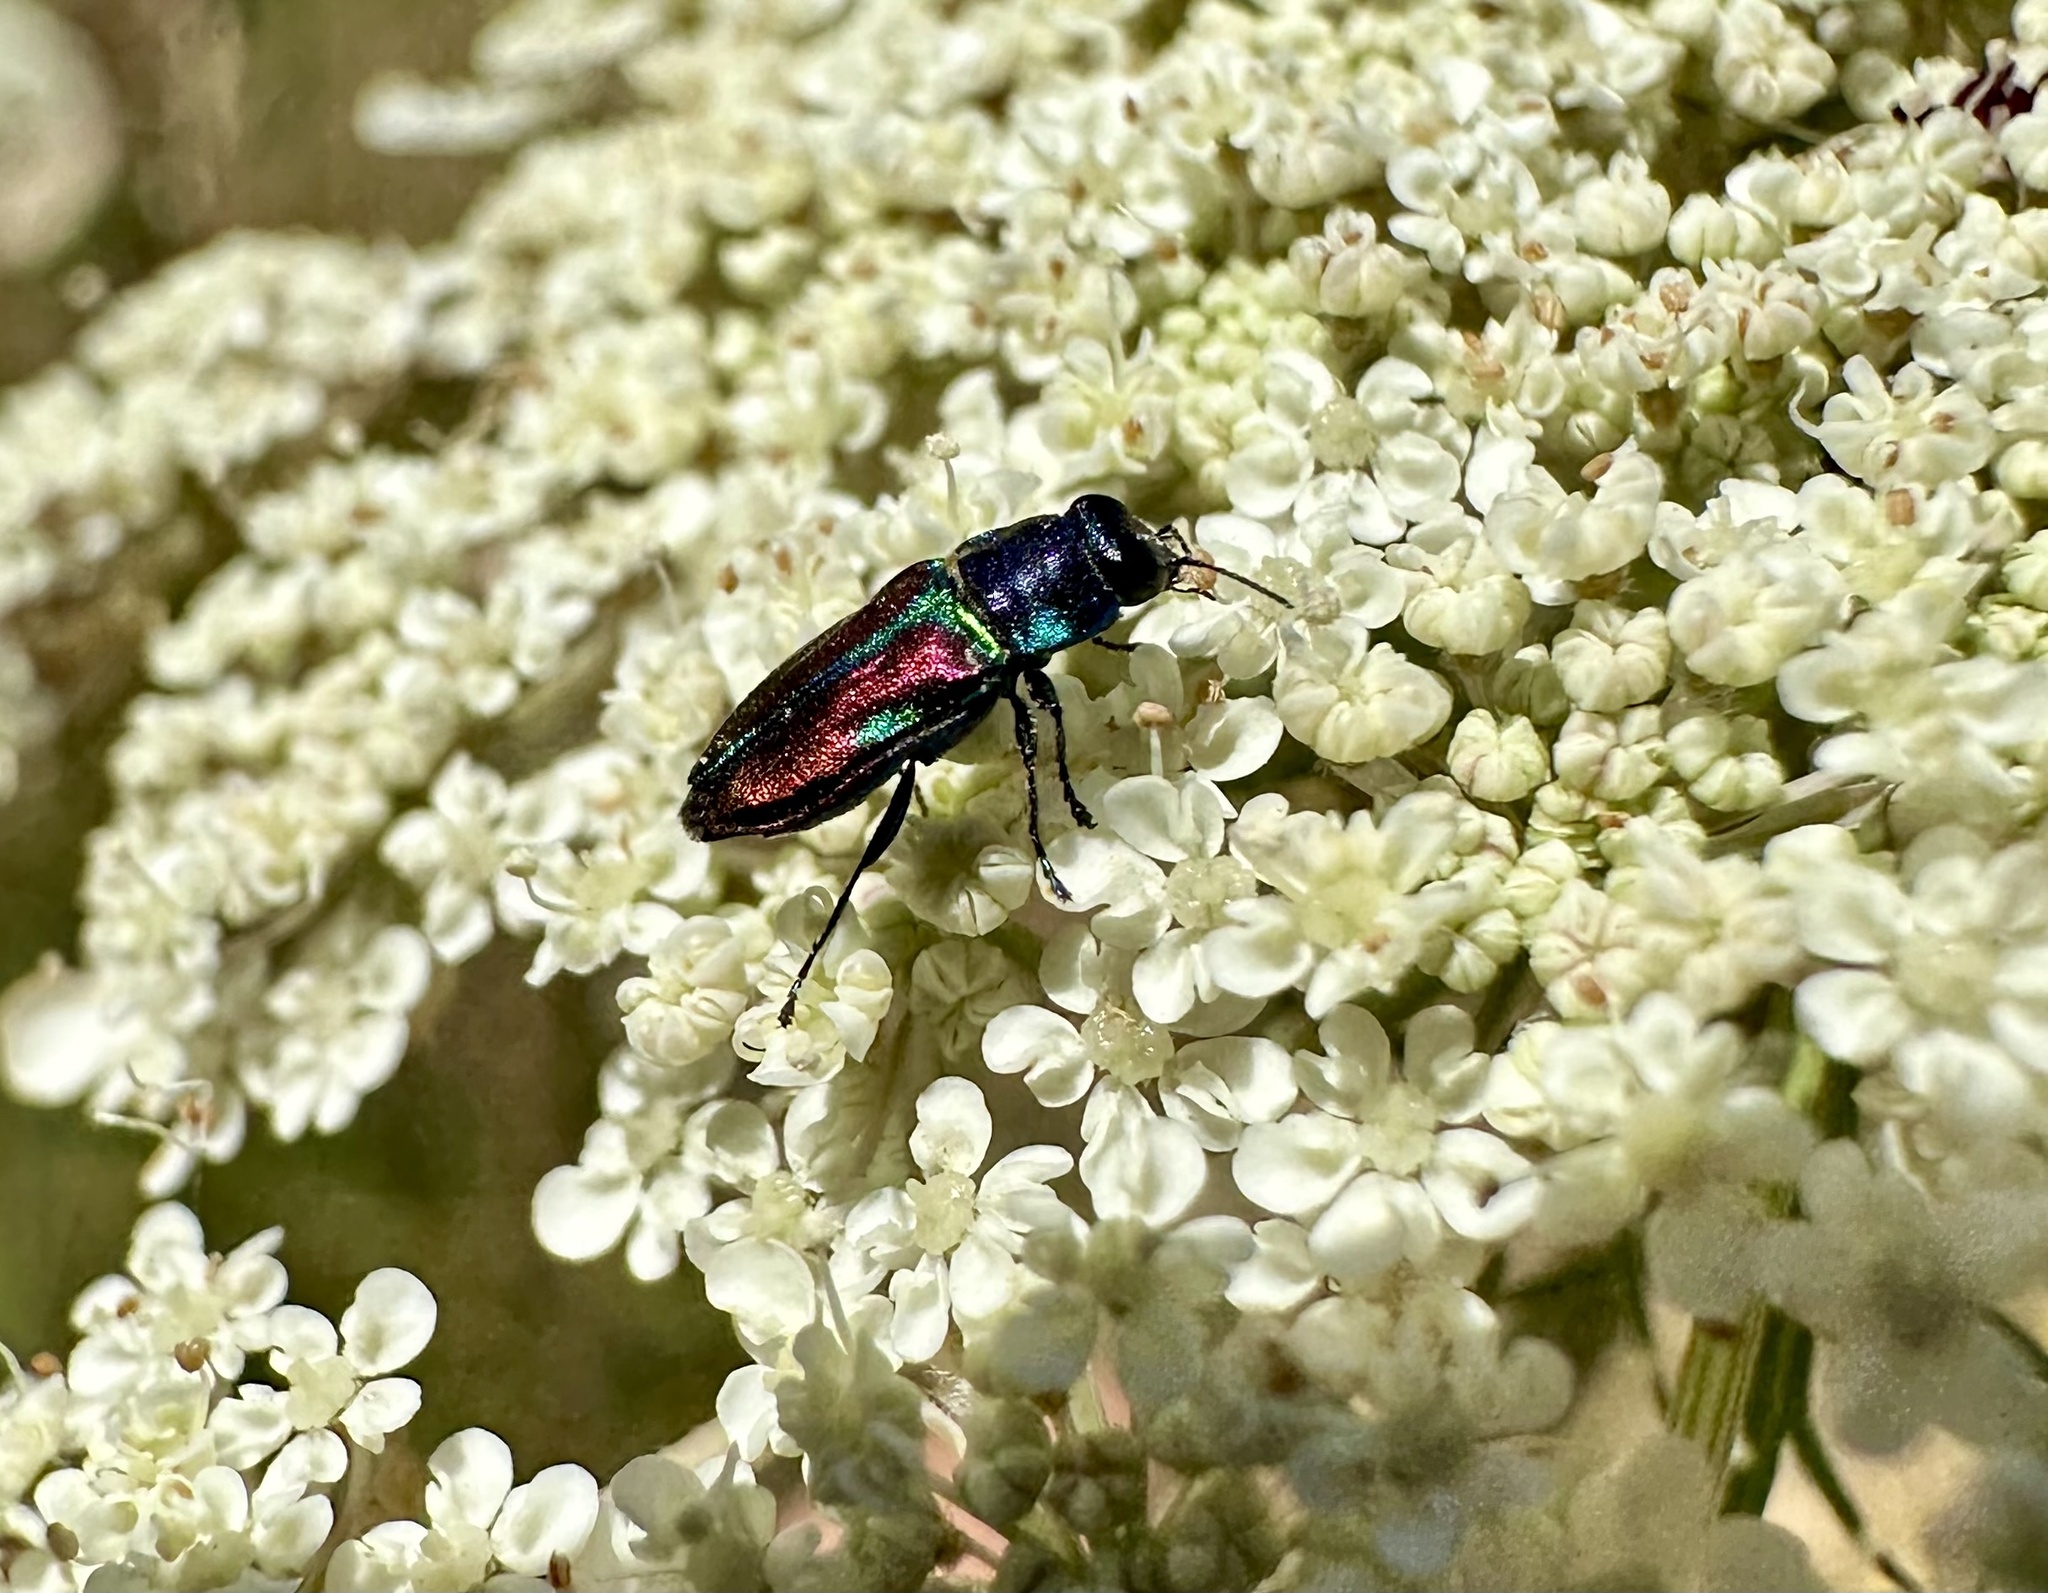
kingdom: Animalia
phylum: Arthropoda
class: Insecta
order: Coleoptera
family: Buprestidae
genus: Bilyaxia
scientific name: Bilyaxia concinna
